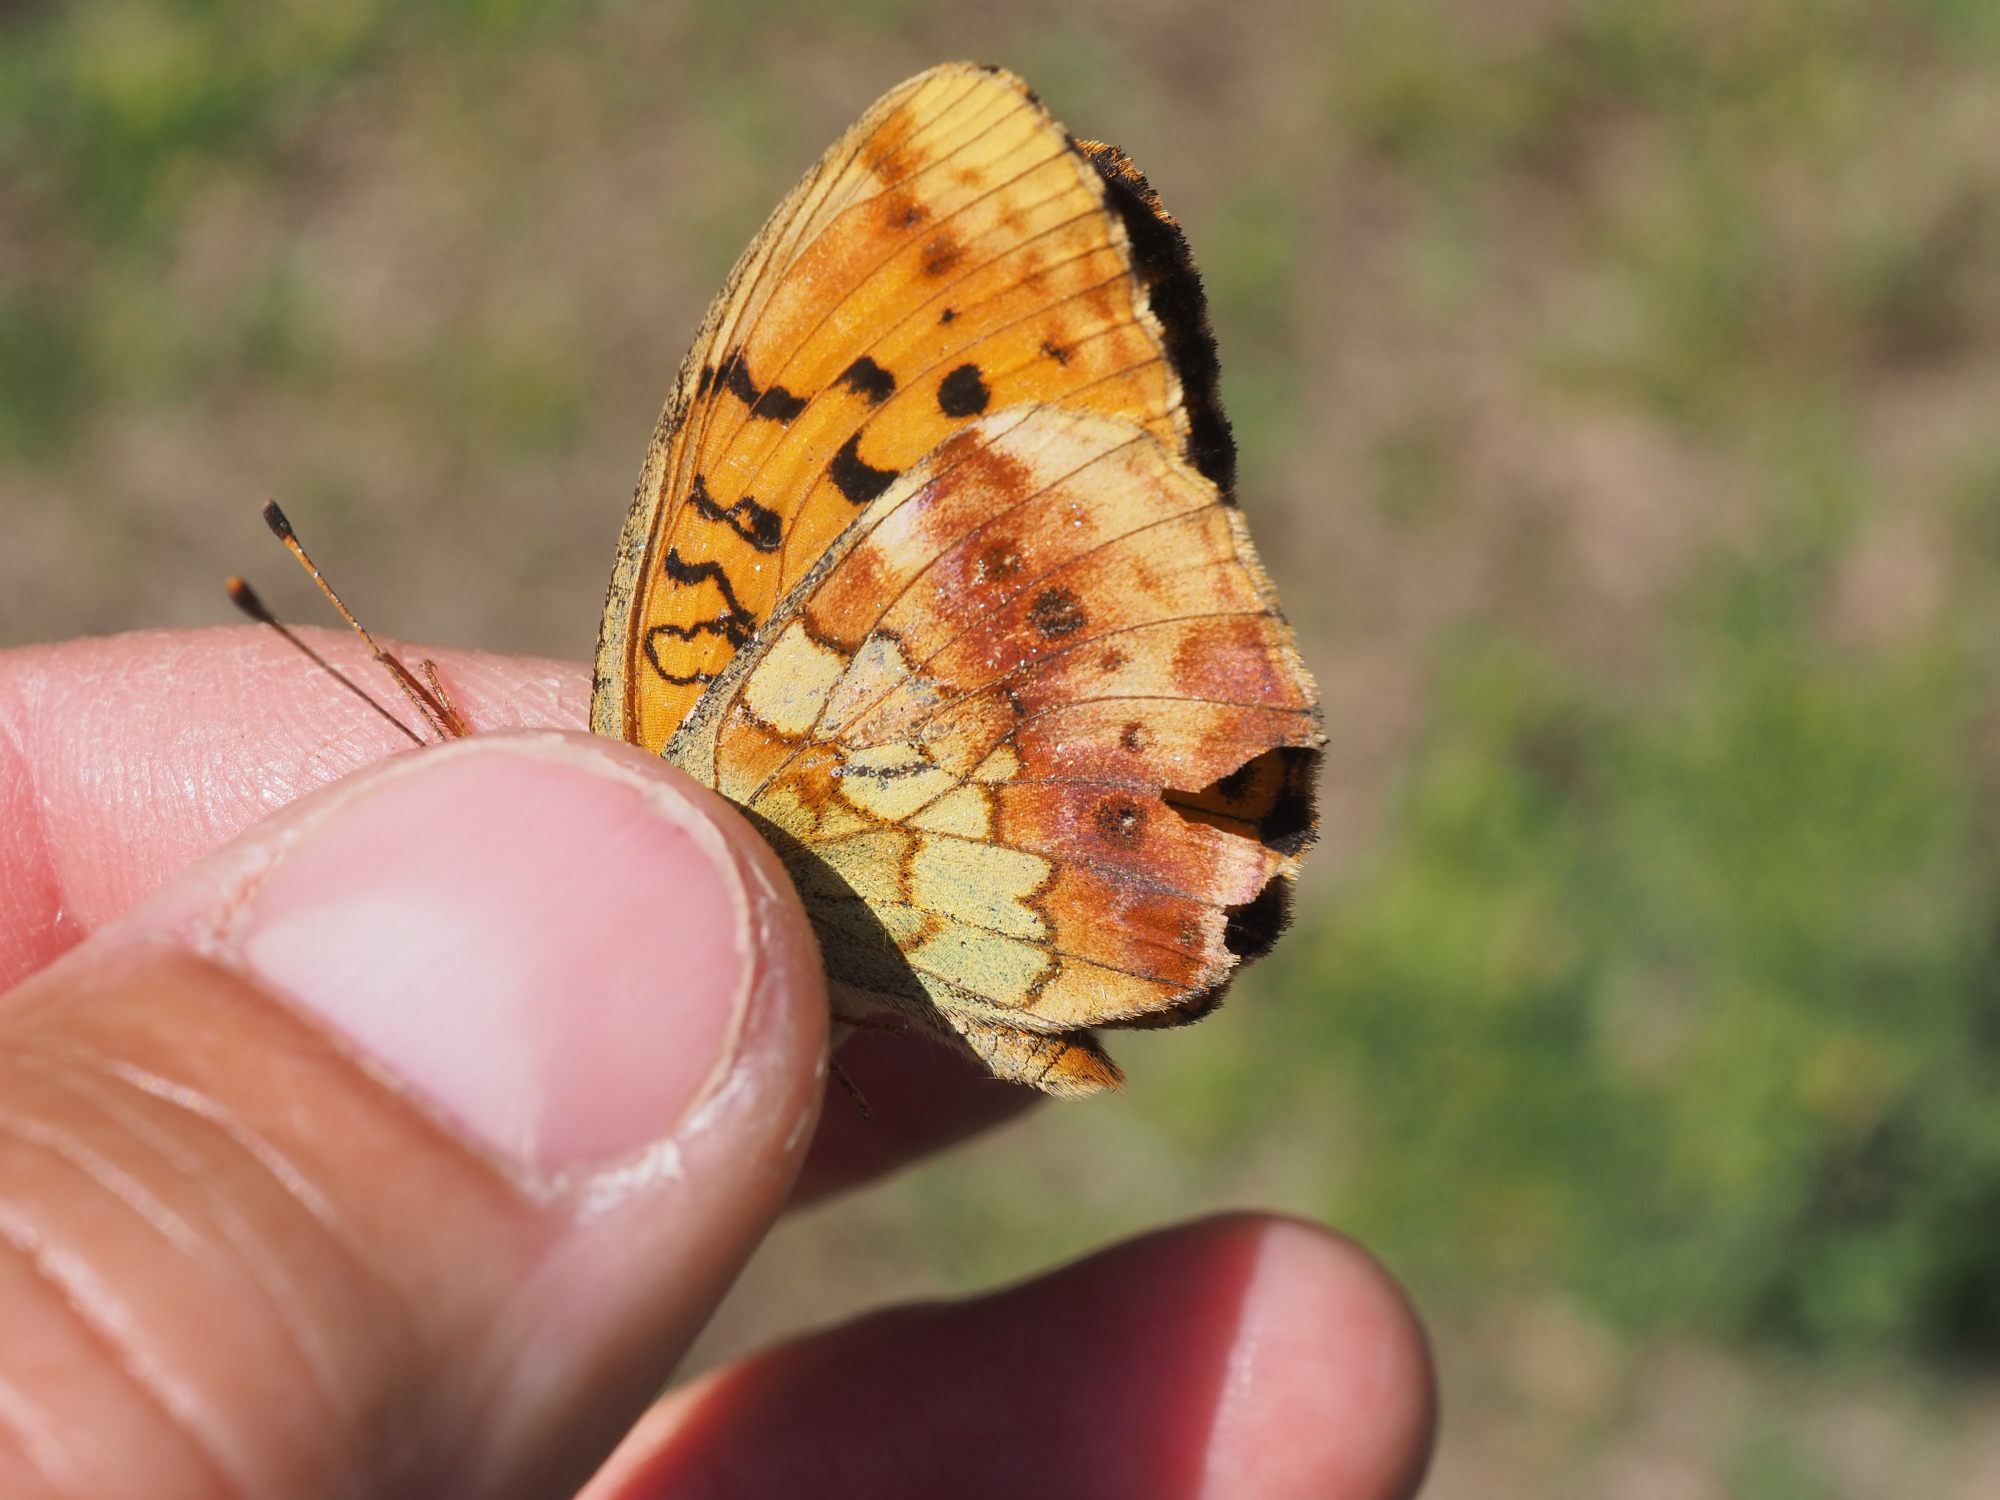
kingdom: Animalia
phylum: Arthropoda
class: Insecta
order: Lepidoptera
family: Nymphalidae
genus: Brenthis
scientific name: Brenthis daphne
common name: Marbled fritillary
